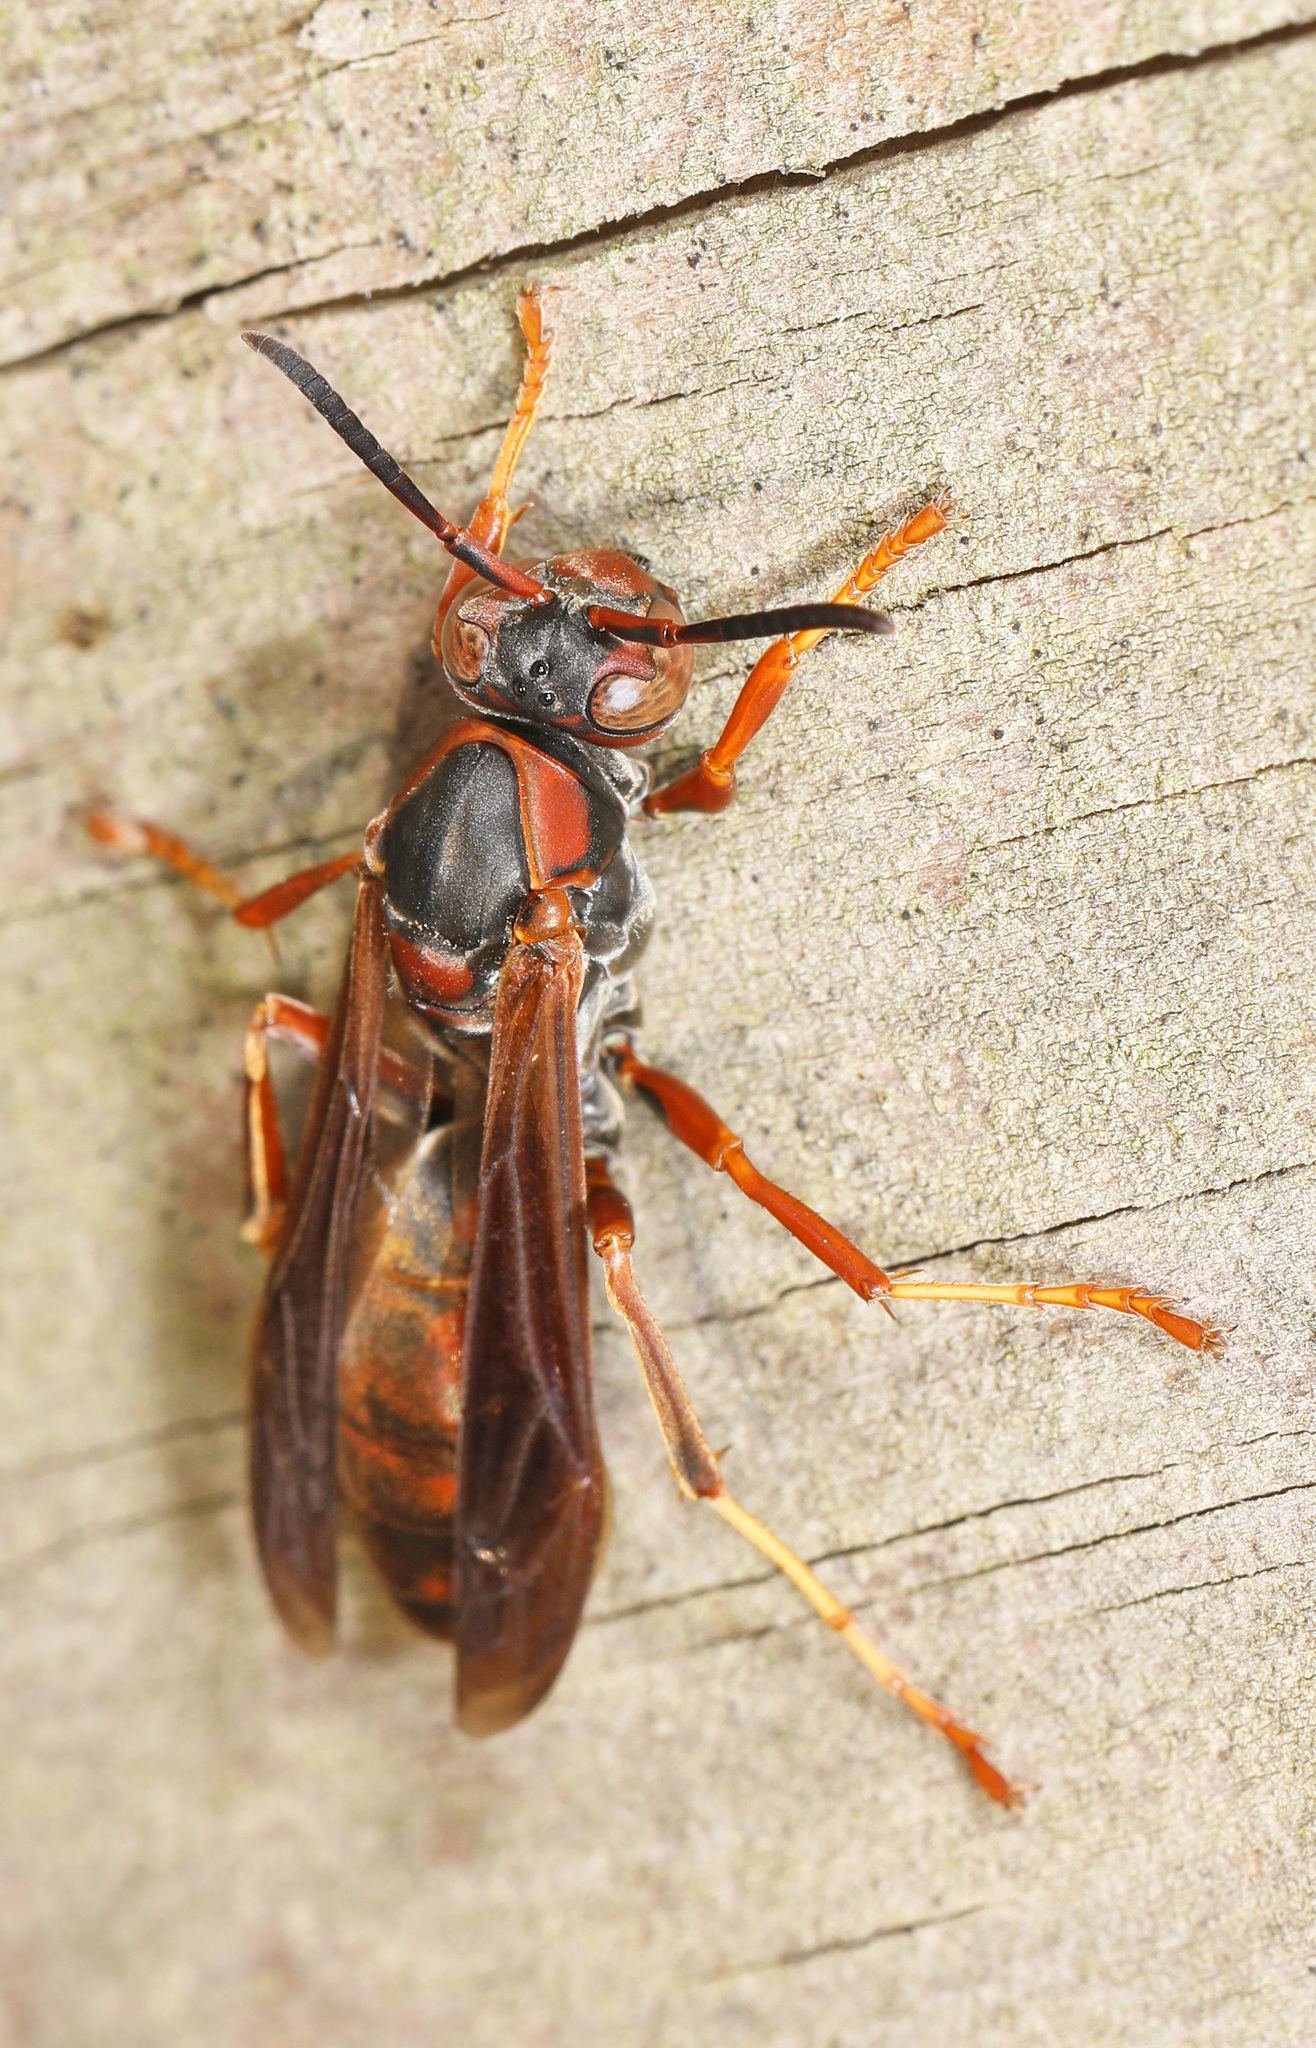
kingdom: Animalia
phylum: Arthropoda
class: Insecta
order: Hymenoptera
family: Eumenidae
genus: Polistes
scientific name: Polistes fuscatus
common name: Dark paper wasp
